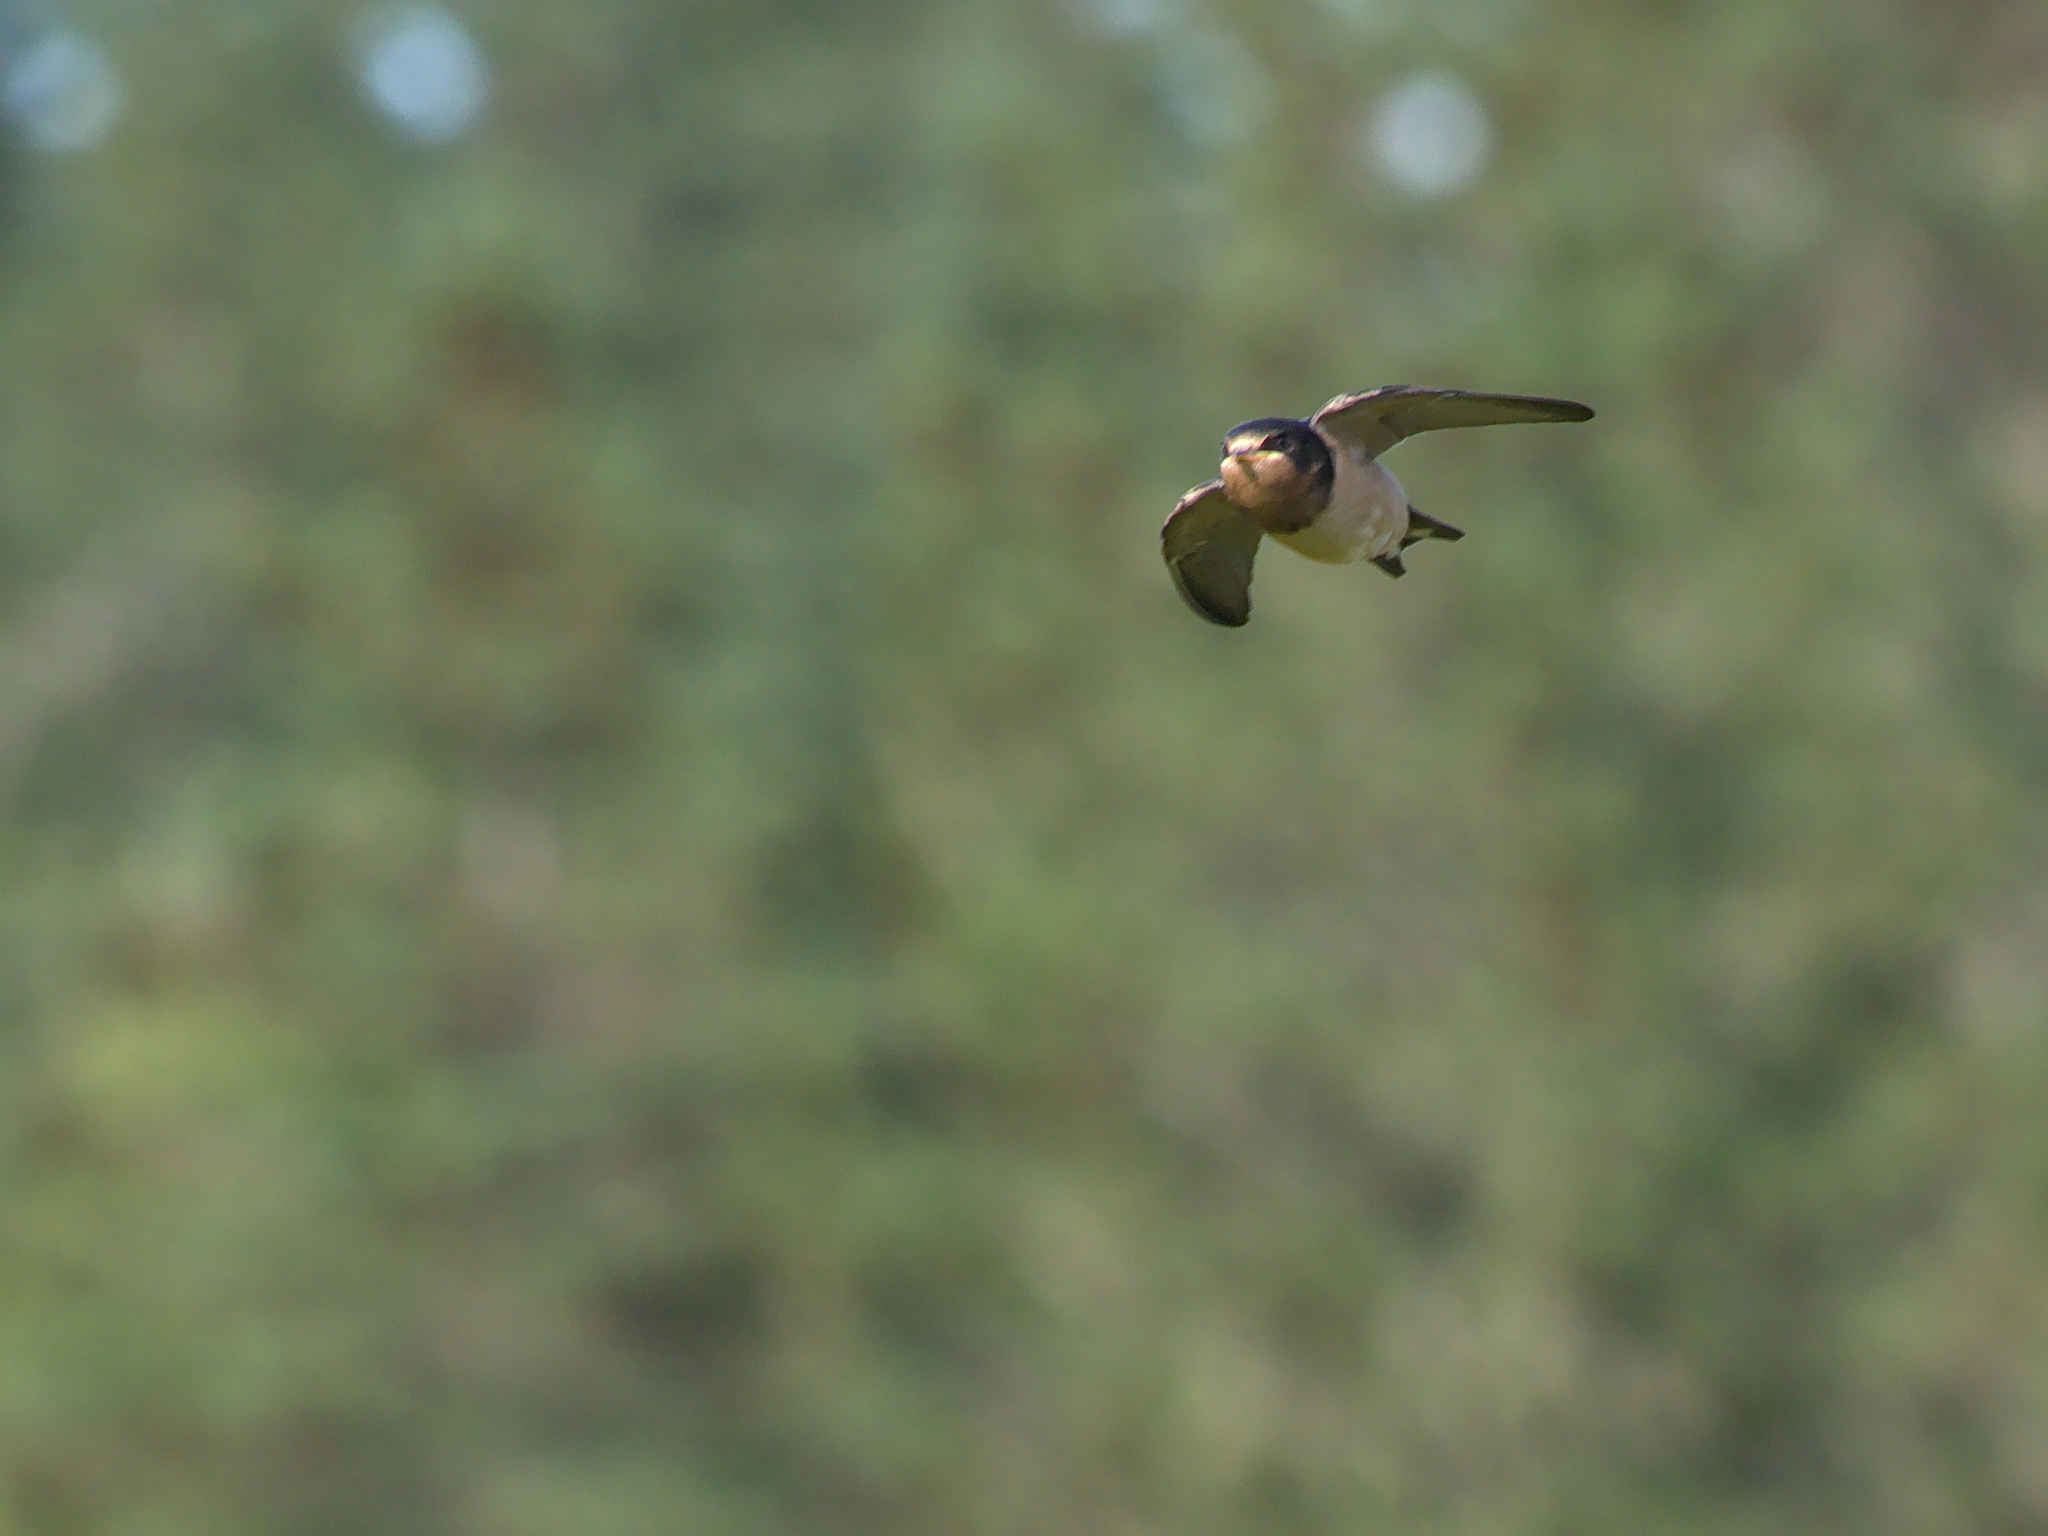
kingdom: Animalia
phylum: Chordata
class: Aves
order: Passeriformes
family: Hirundinidae
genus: Hirundo
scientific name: Hirundo rustica
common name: Barn swallow
